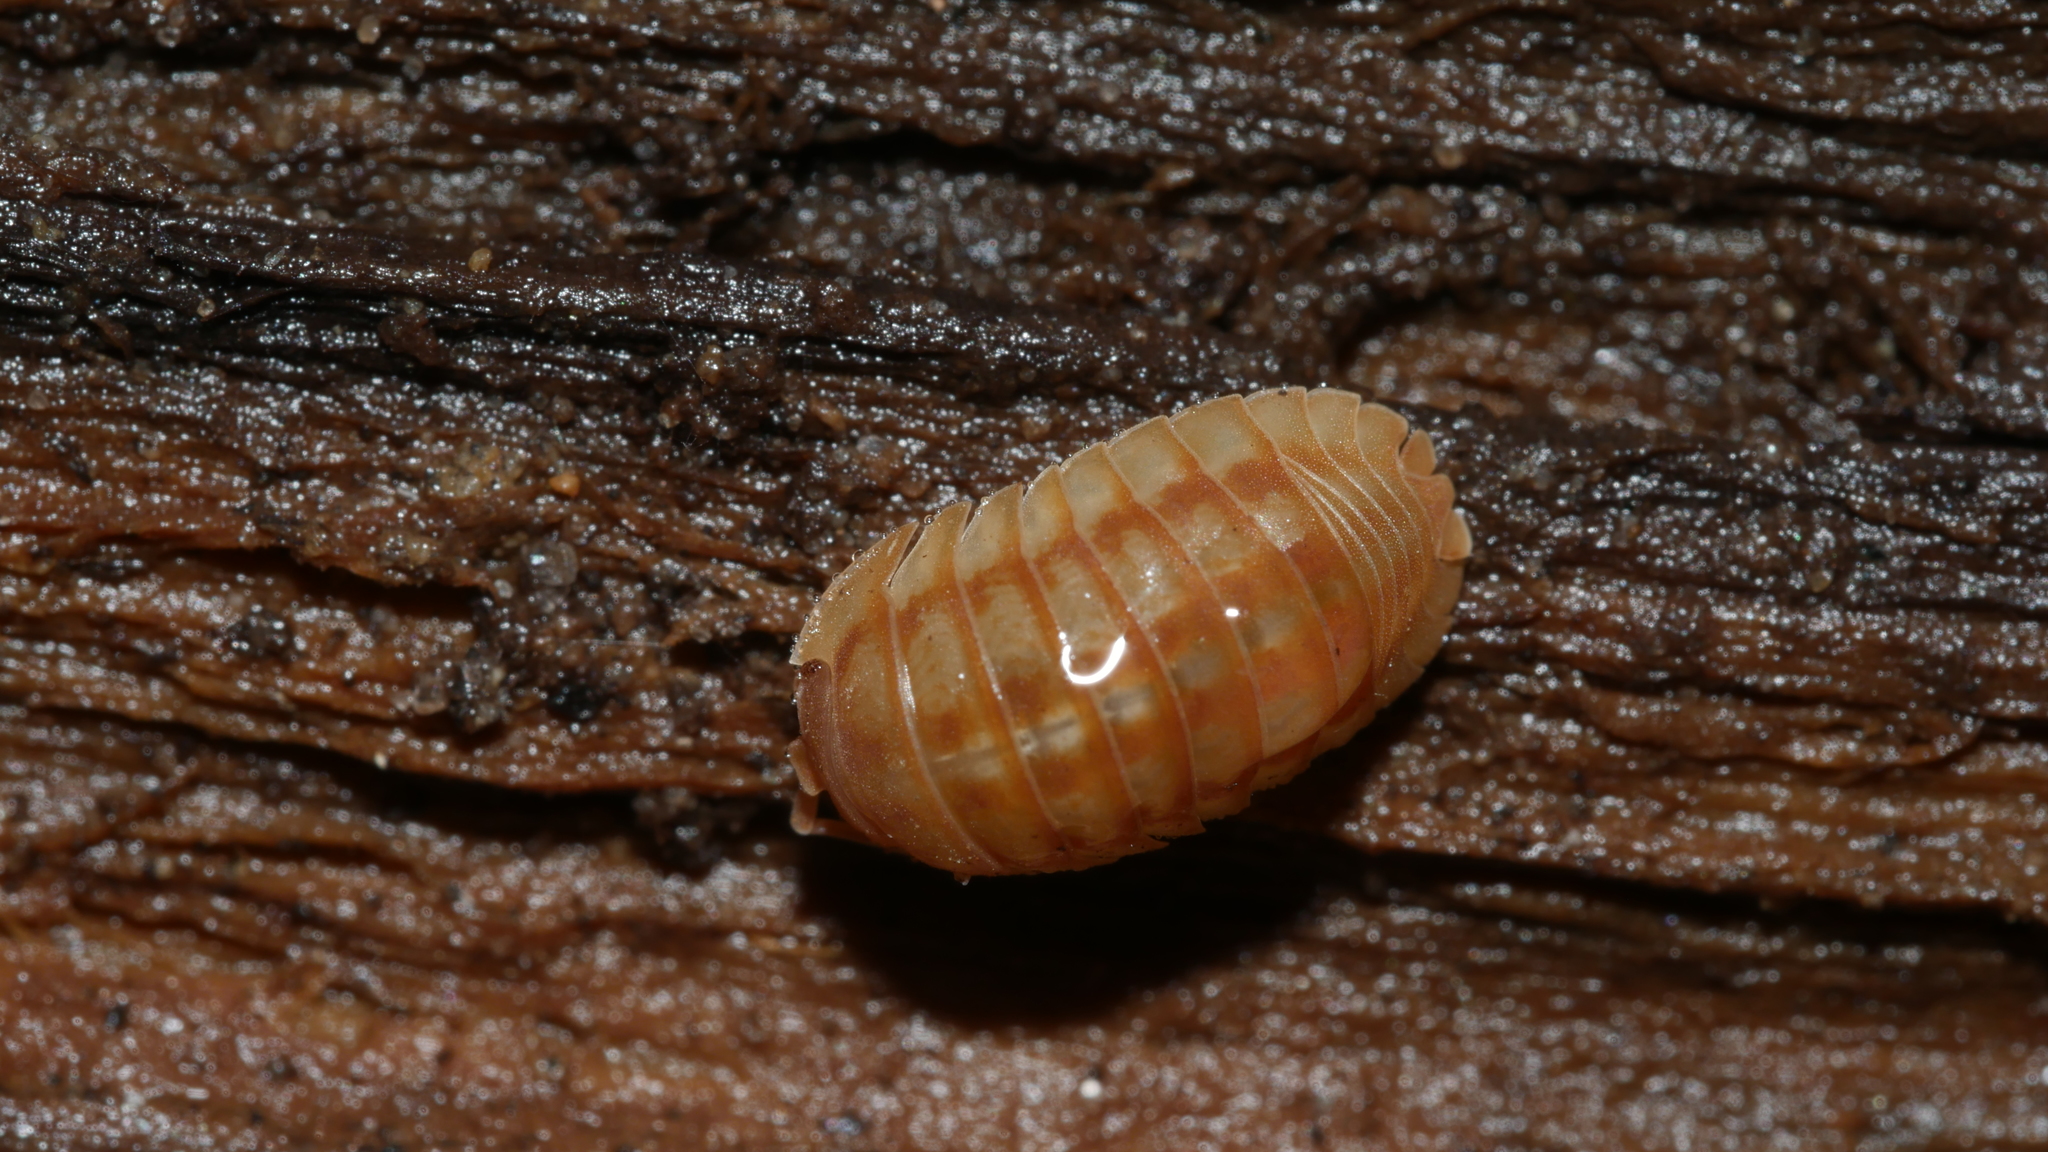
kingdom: Animalia
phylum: Arthropoda
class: Malacostraca
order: Isopoda
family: Armadillidiidae
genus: Armadillidium
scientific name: Armadillidium nasatum
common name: Isopod
